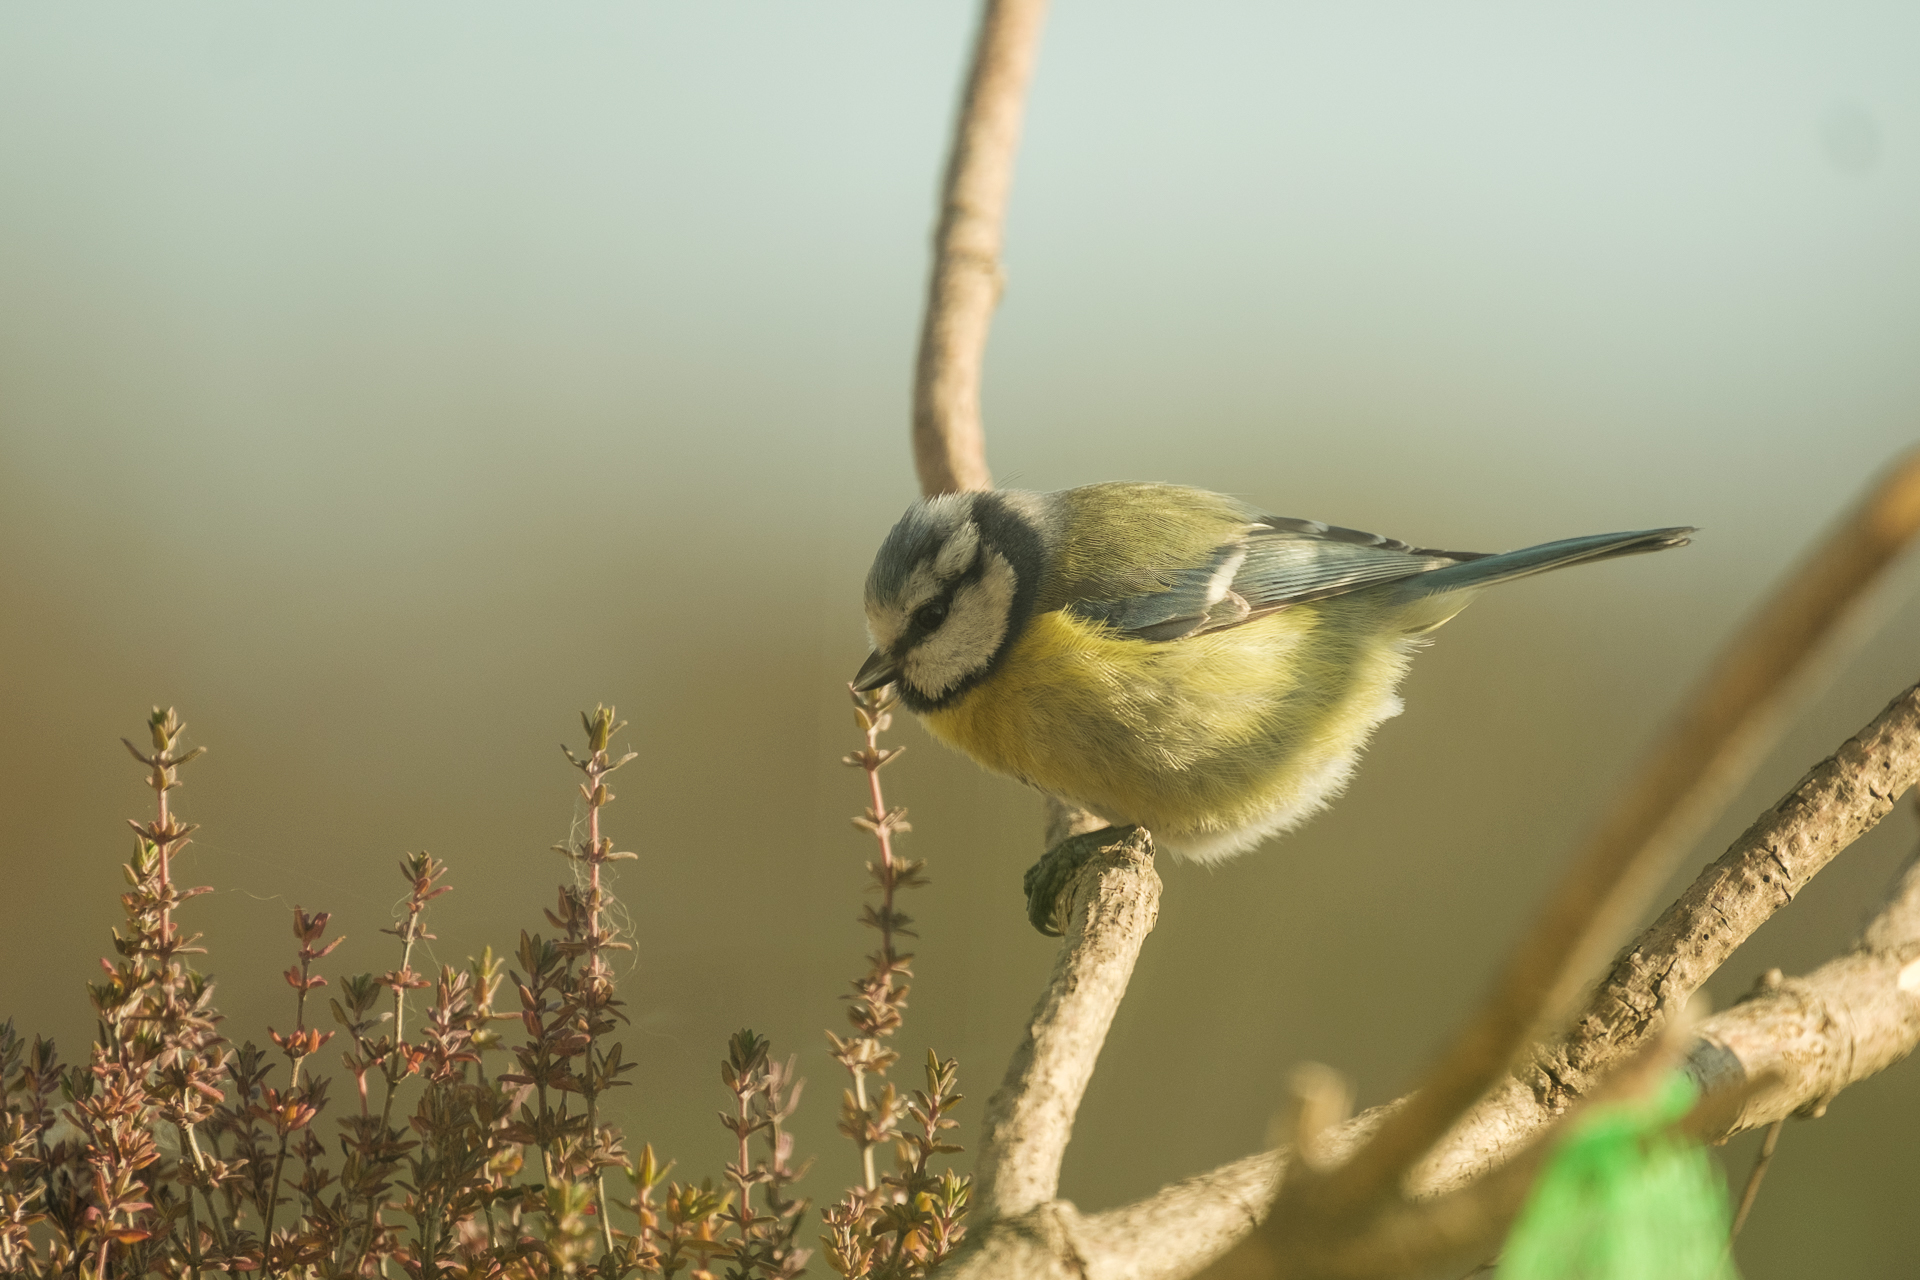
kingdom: Animalia
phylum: Chordata
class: Aves
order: Passeriformes
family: Paridae
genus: Cyanistes
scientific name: Cyanistes caeruleus
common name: Eurasian blue tit
